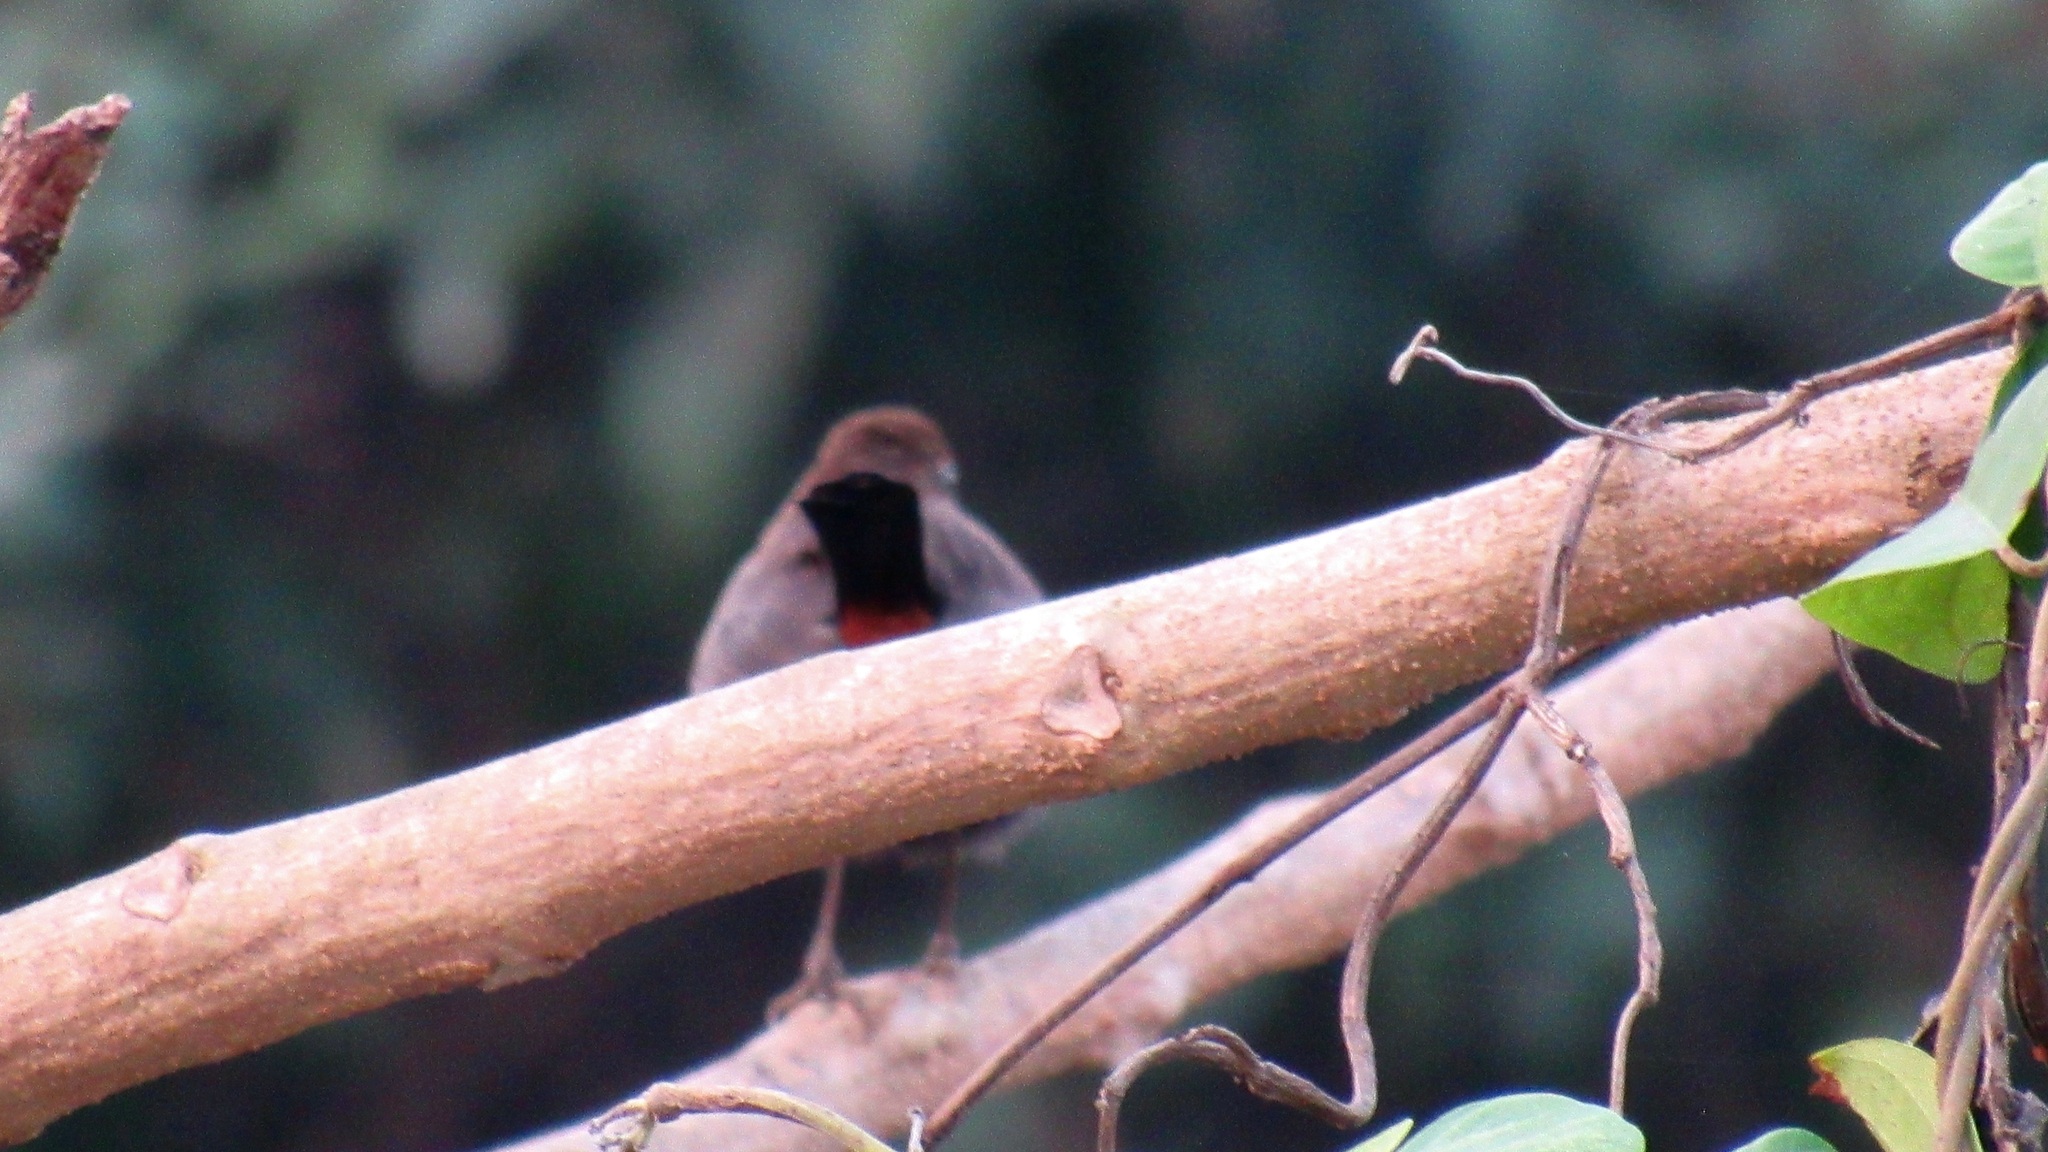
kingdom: Animalia
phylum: Chordata
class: Aves
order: Passeriformes
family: Muscicapidae
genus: Saxicoloides
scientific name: Saxicoloides fulicatus
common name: Indian robin
